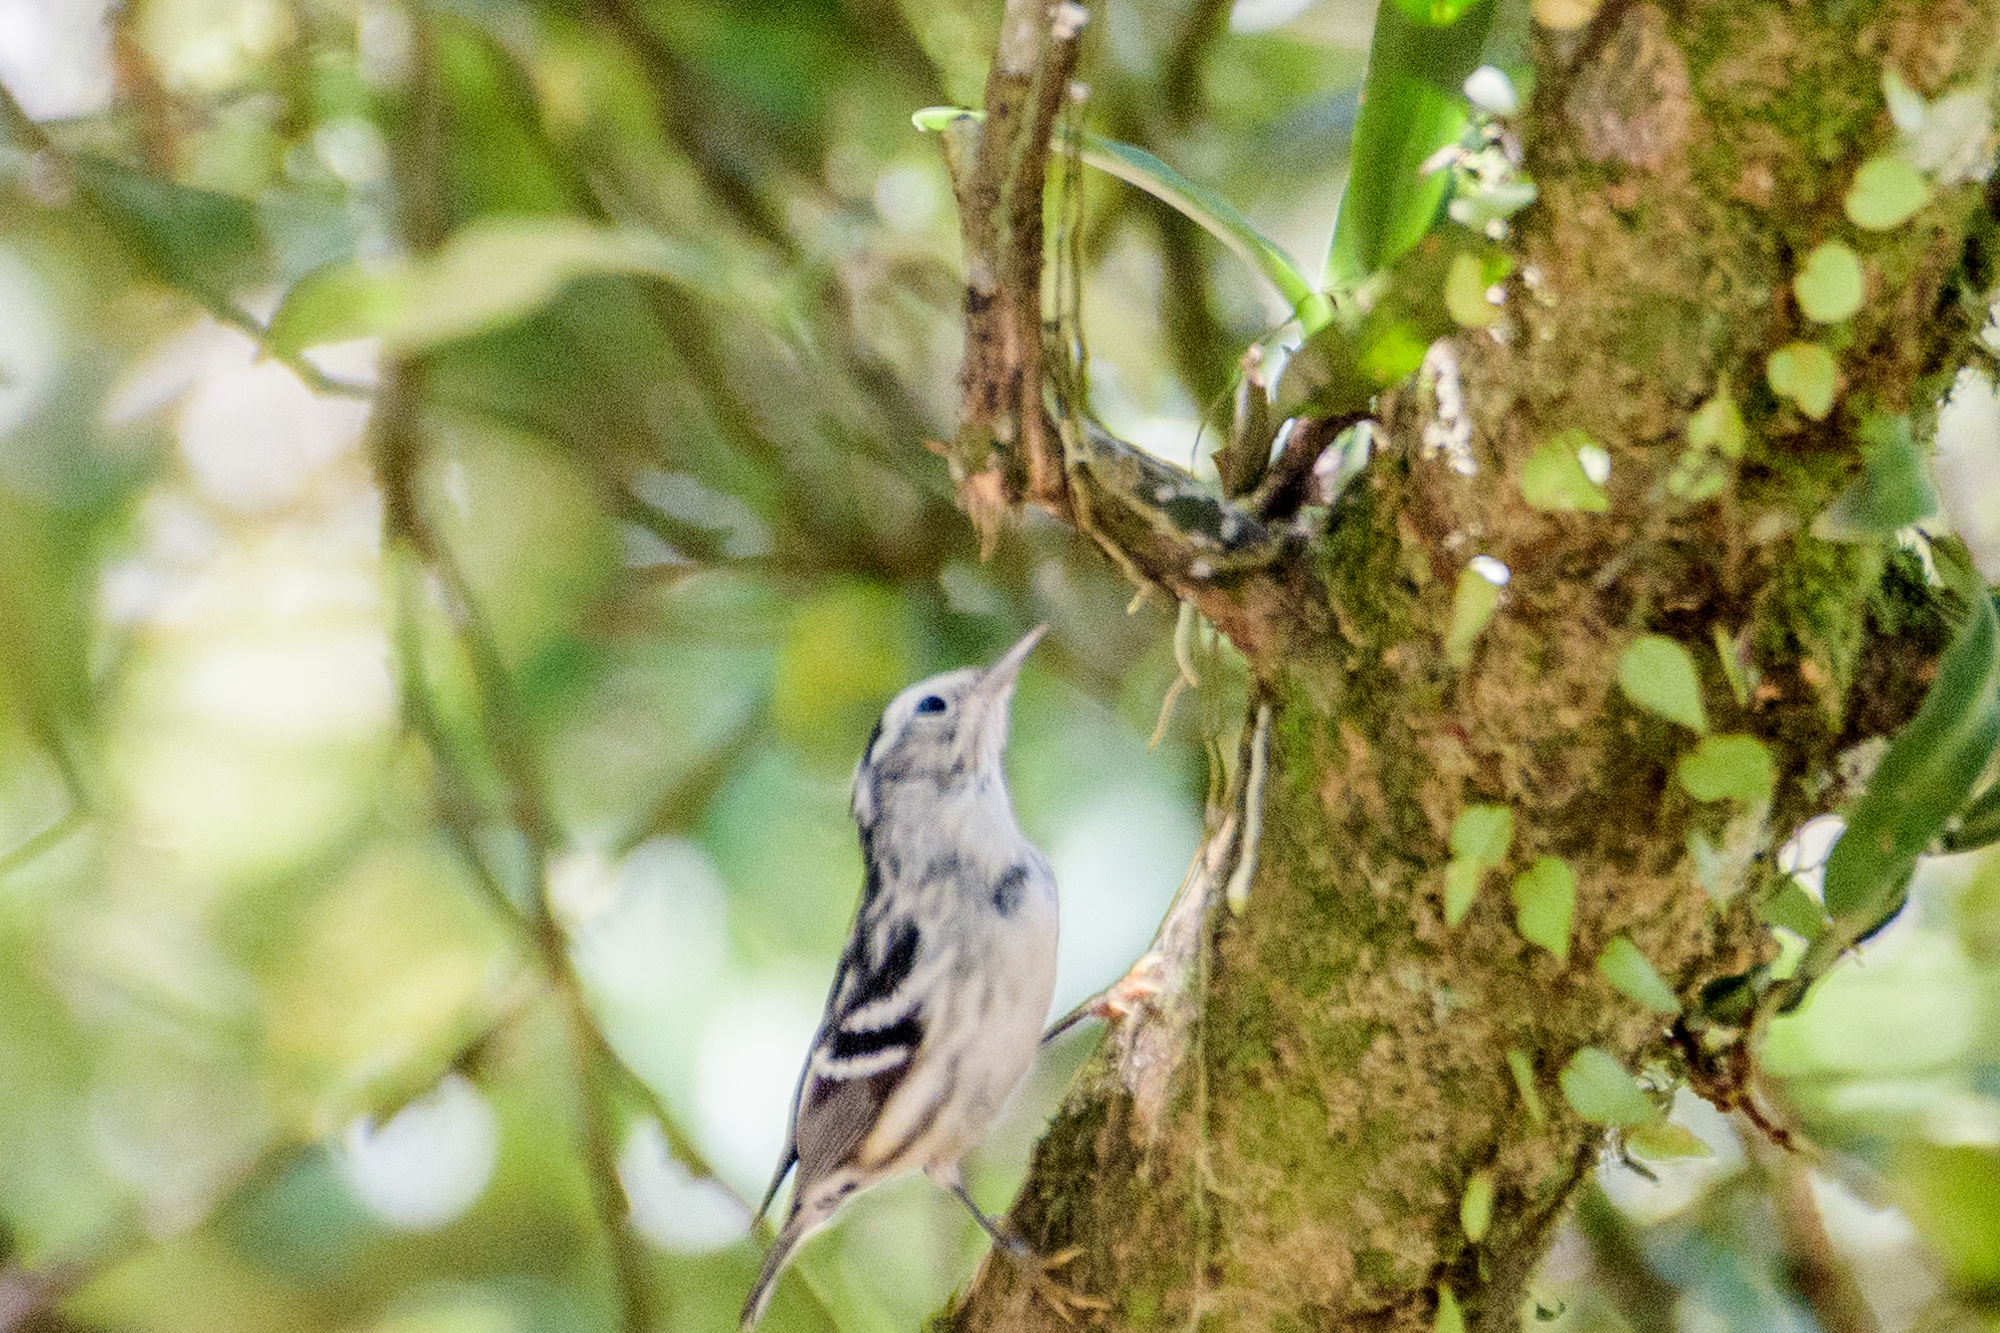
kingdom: Animalia
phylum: Chordata
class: Aves
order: Passeriformes
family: Parulidae
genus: Mniotilta
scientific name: Mniotilta varia
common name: Black-and-white warbler
